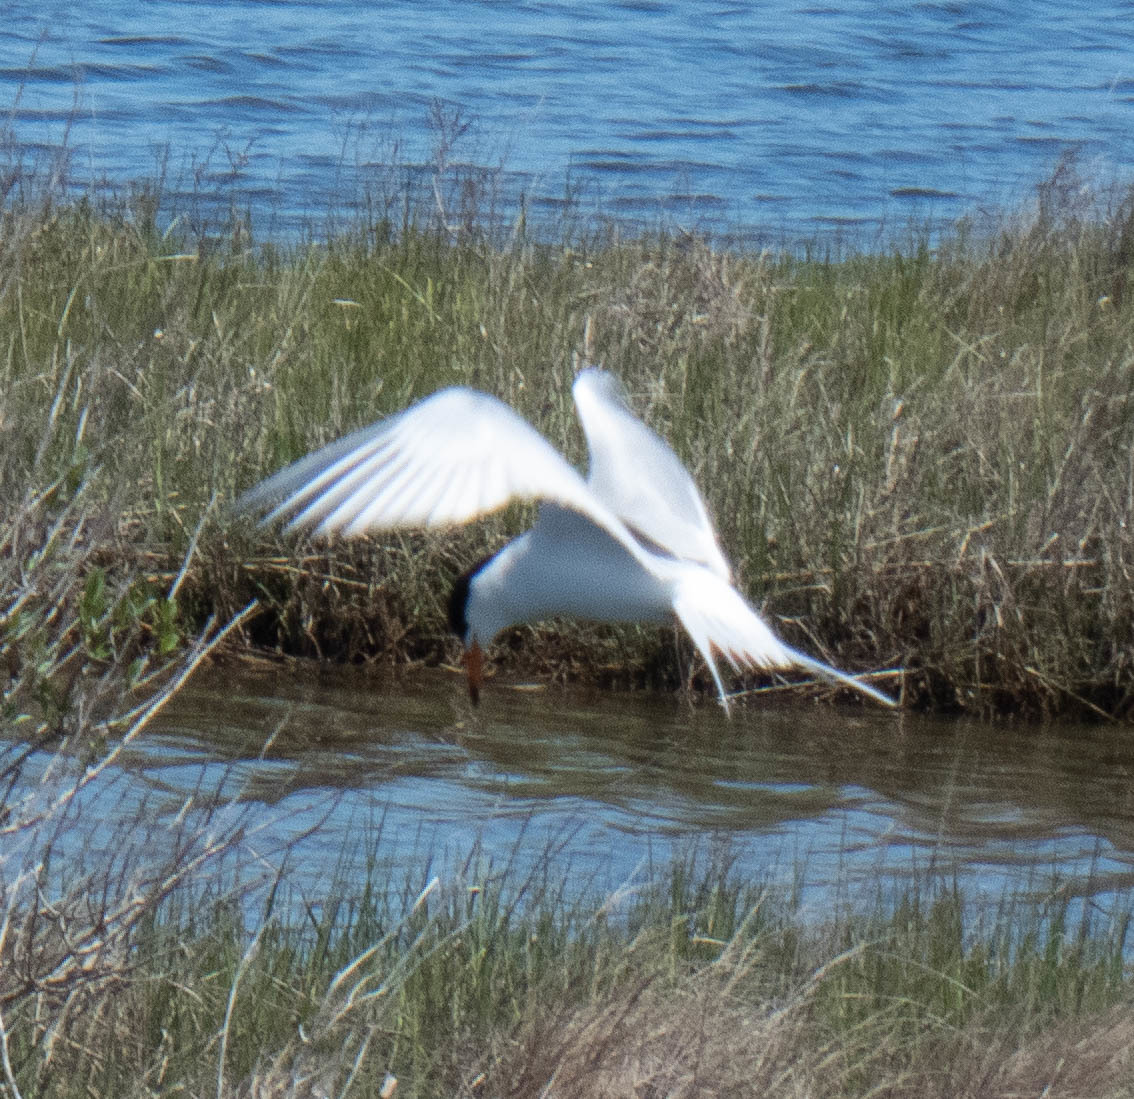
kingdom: Animalia
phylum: Chordata
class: Aves
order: Charadriiformes
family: Laridae
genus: Sterna
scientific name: Sterna forsteri
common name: Forster's tern
